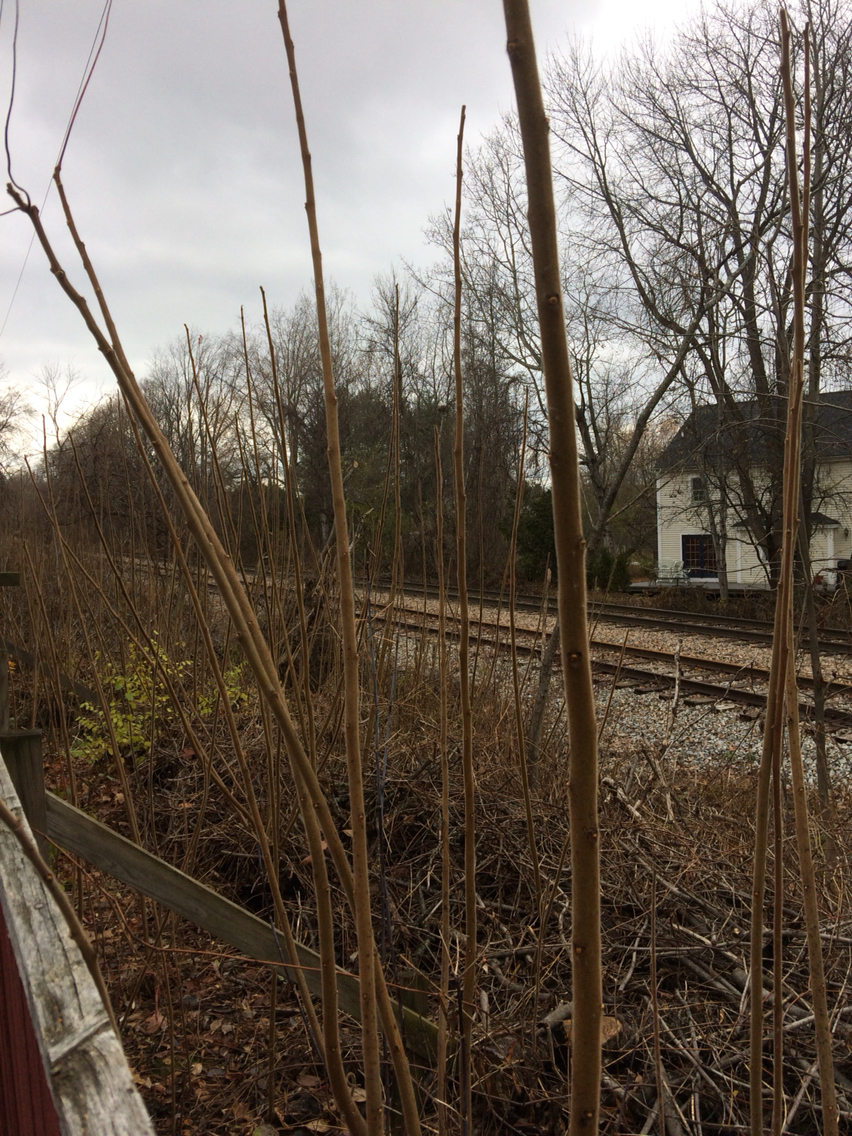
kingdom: Plantae
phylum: Tracheophyta
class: Magnoliopsida
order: Sapindales
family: Anacardiaceae
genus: Rhus
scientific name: Rhus typhina
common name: Staghorn sumac
